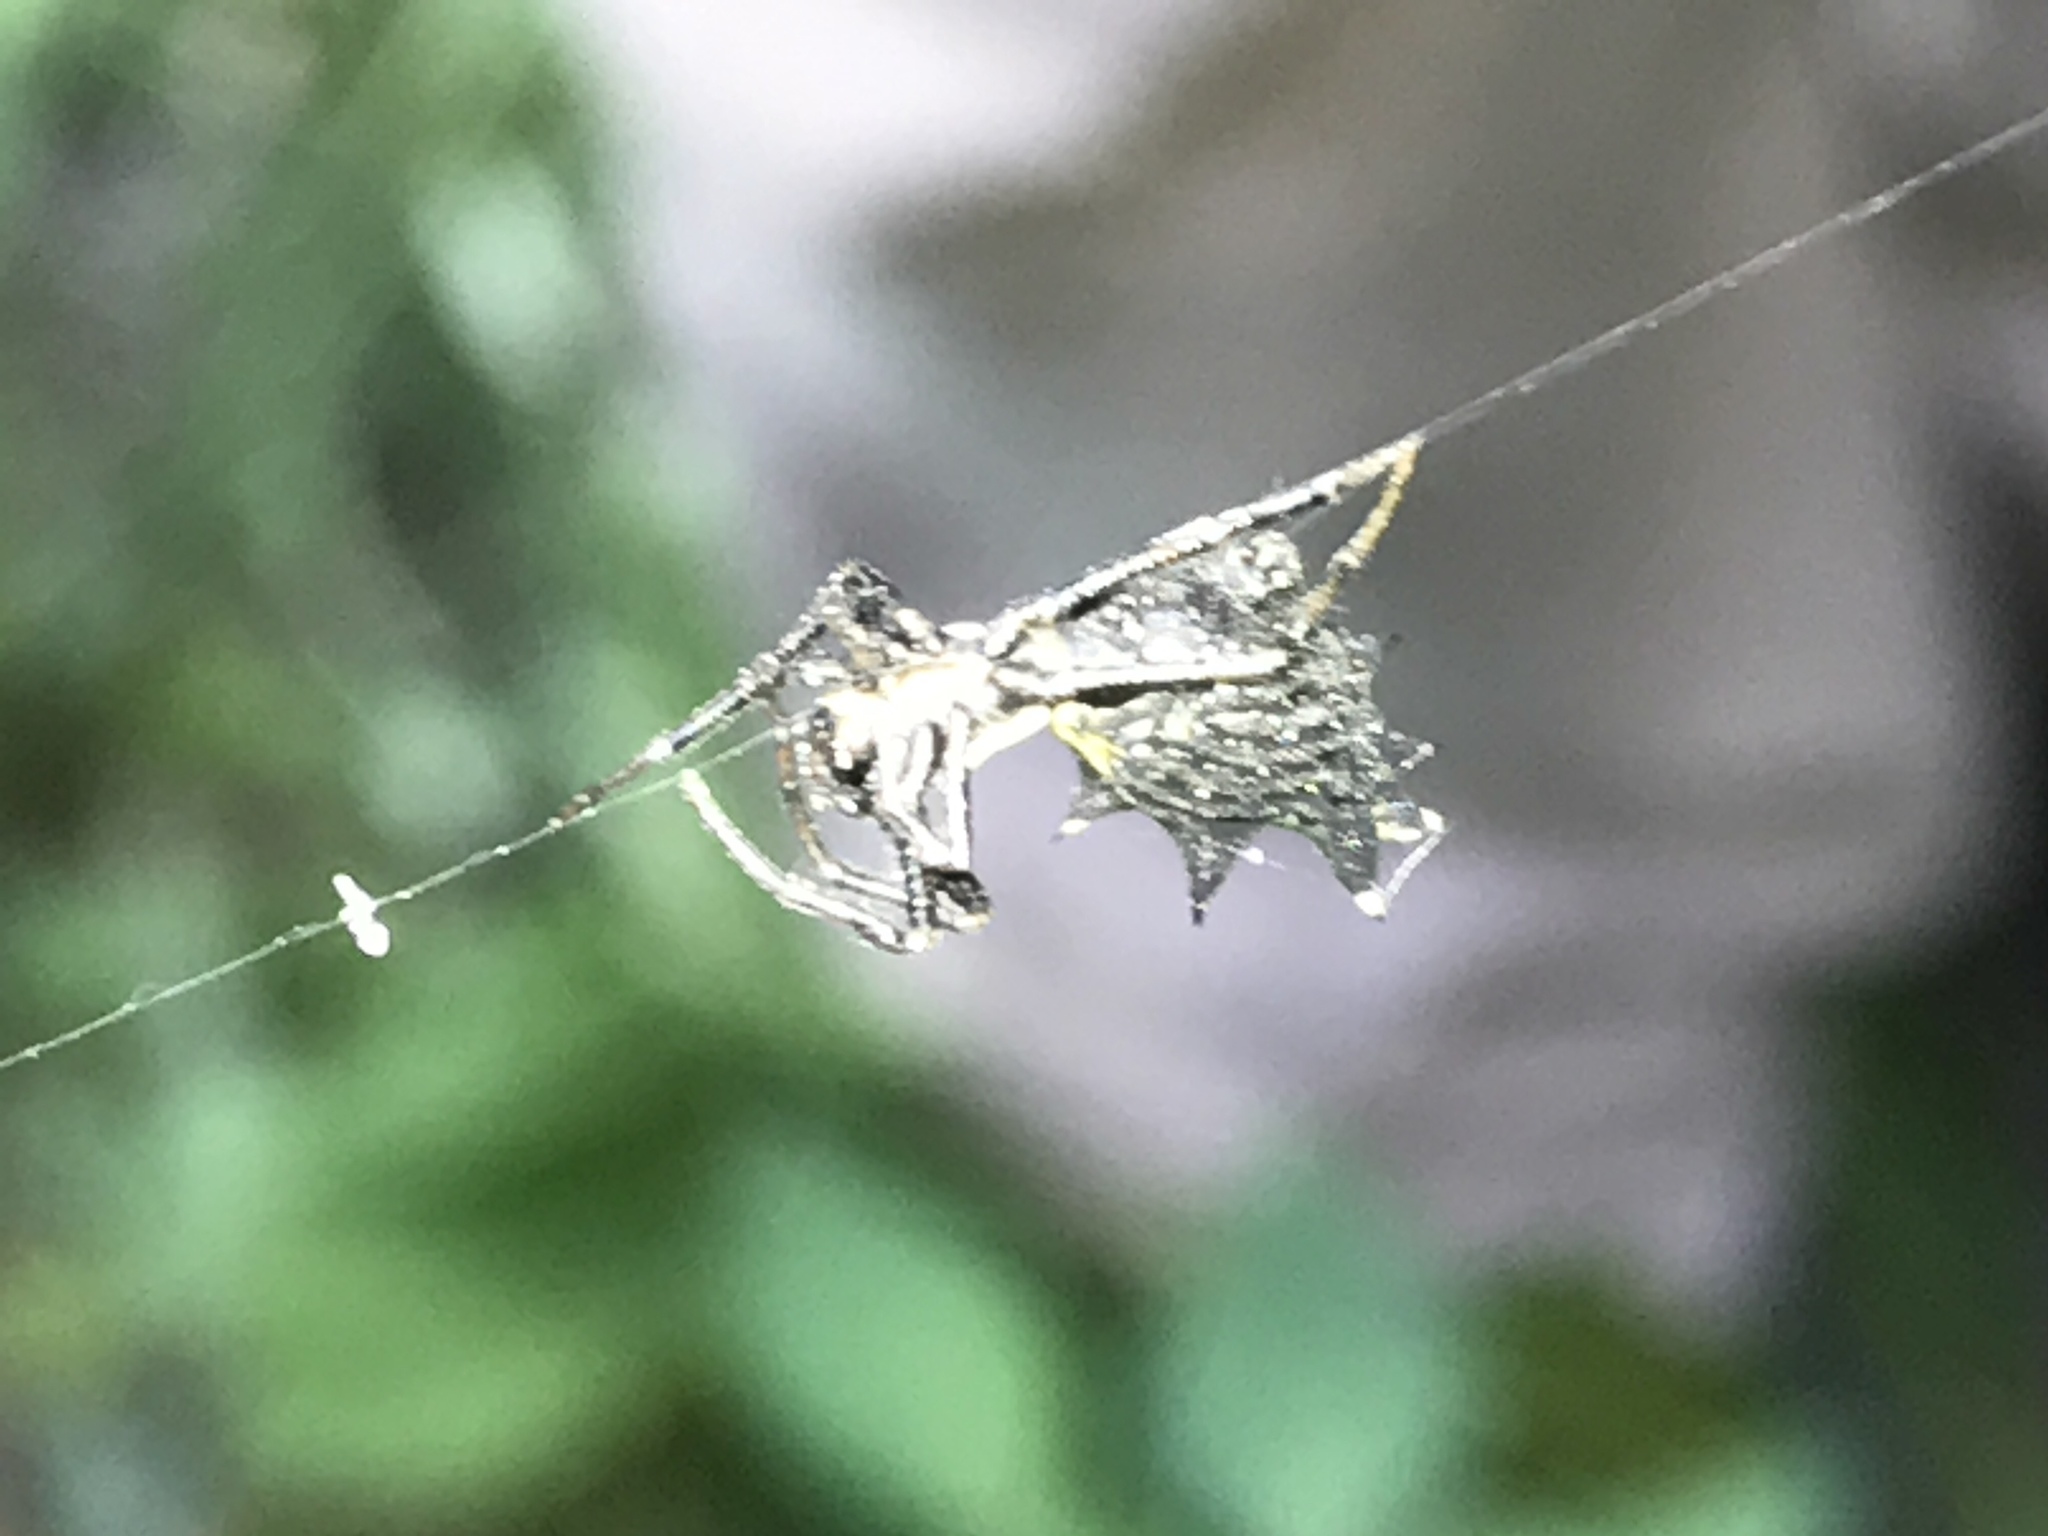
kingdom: Animalia
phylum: Arthropoda
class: Arachnida
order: Araneae
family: Araneidae
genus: Micrathena
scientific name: Micrathena gracilis
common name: Orb weavers
